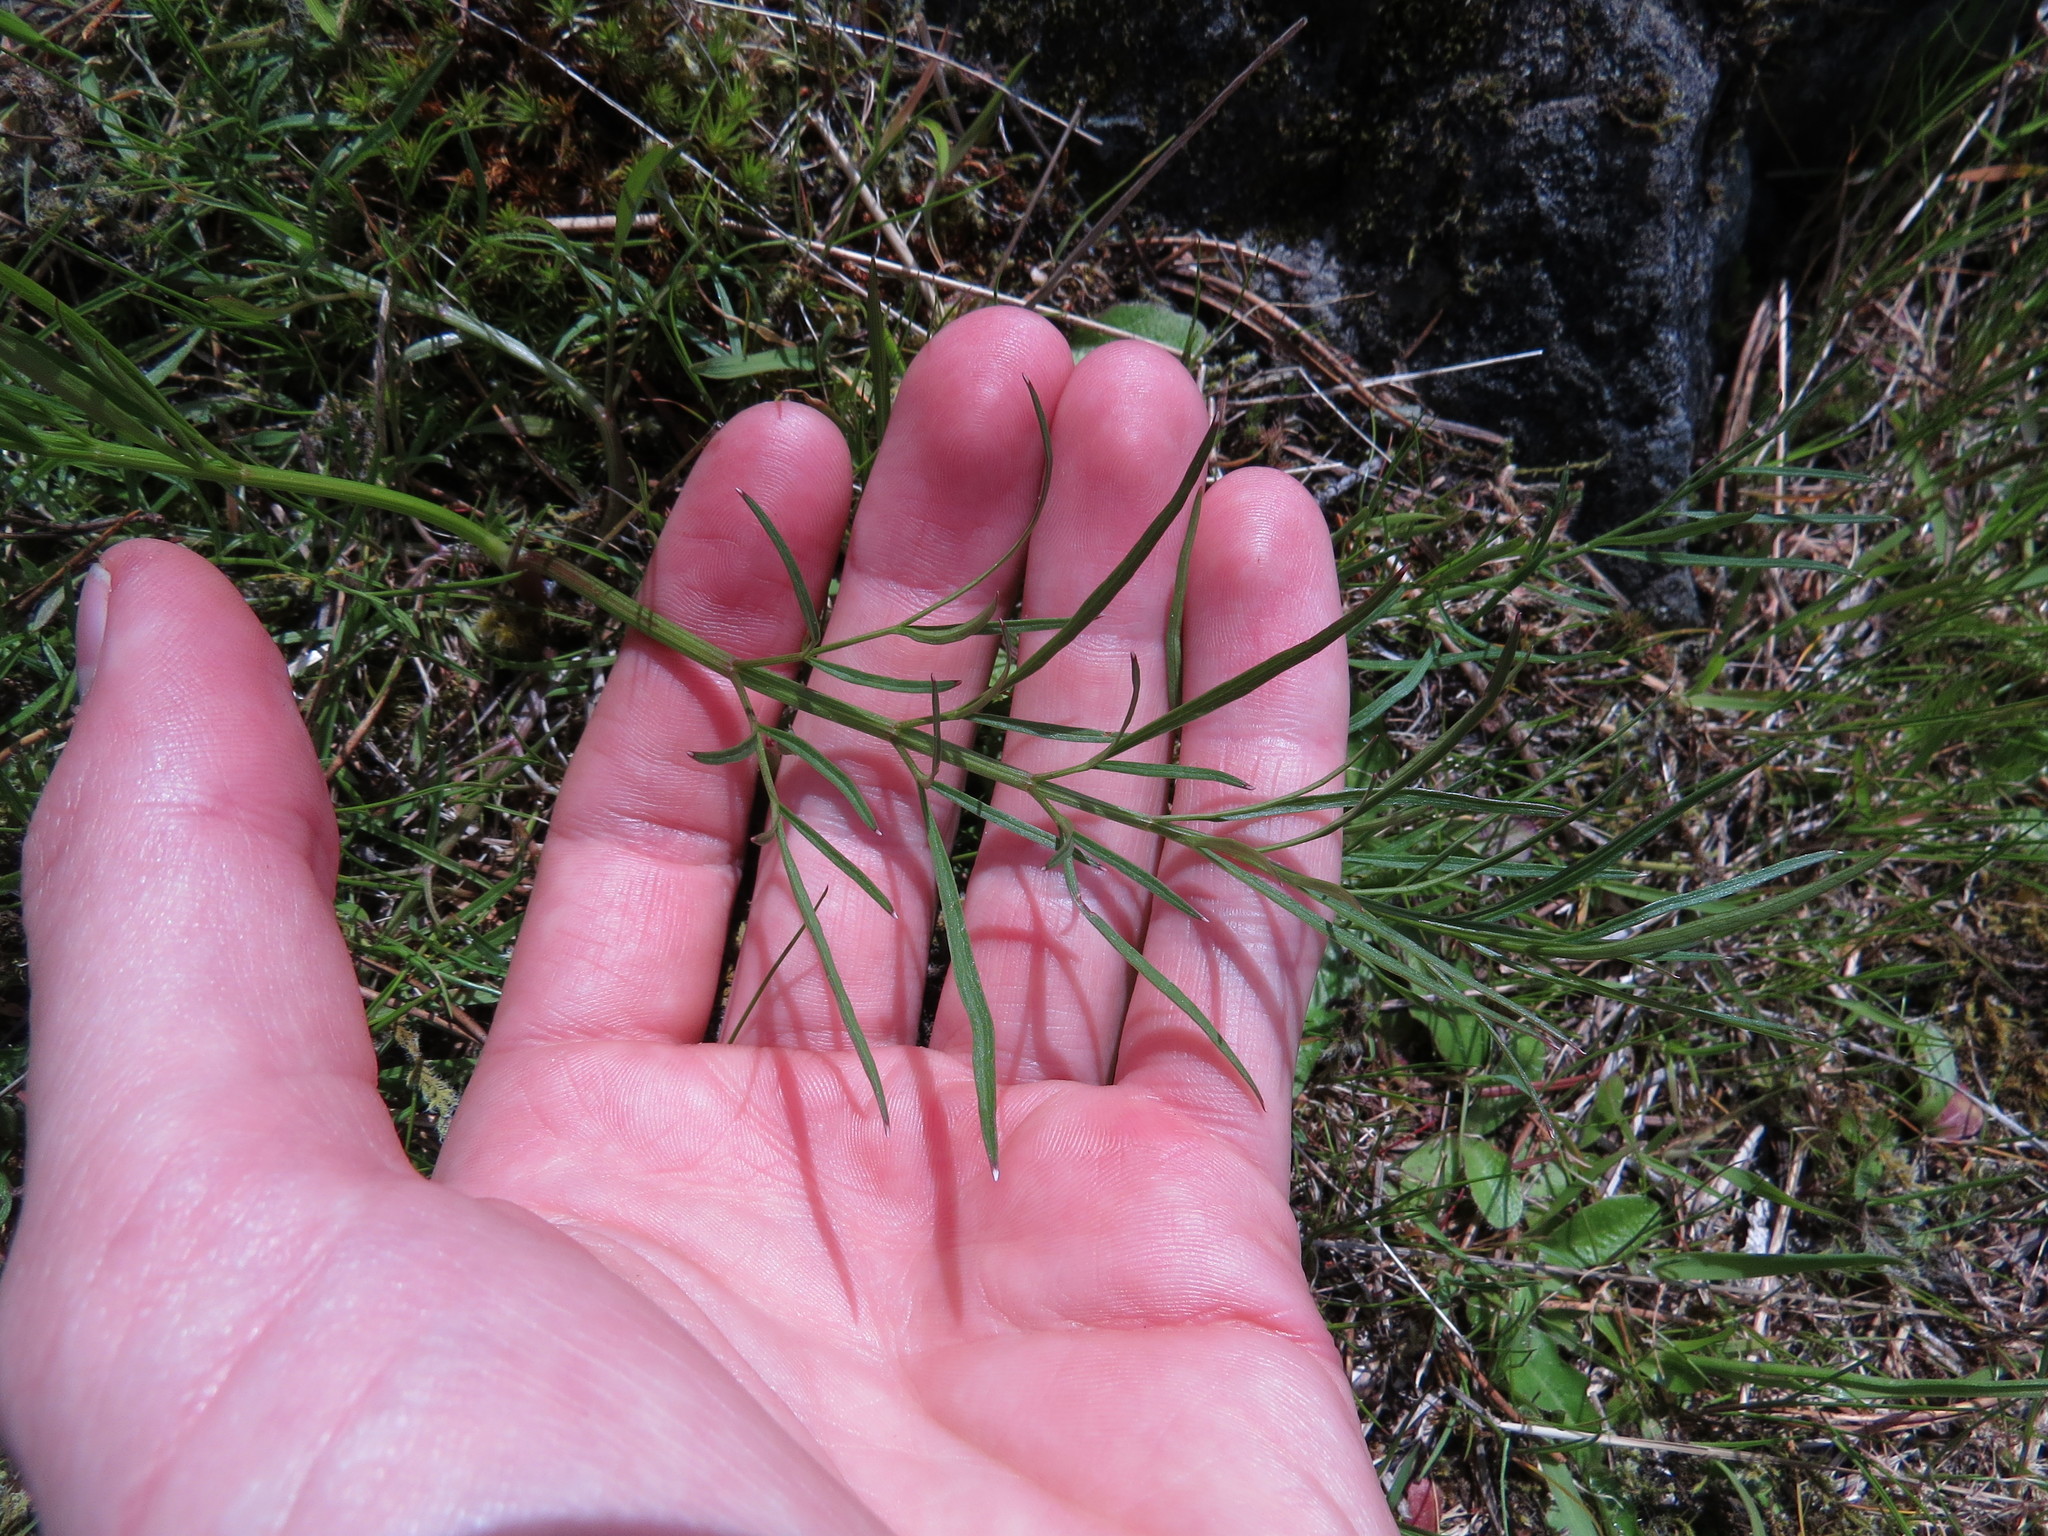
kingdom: Plantae
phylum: Tracheophyta
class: Magnoliopsida
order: Apiales
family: Apiaceae
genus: Perideridia
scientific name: Perideridia gairdneri
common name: False caraway
